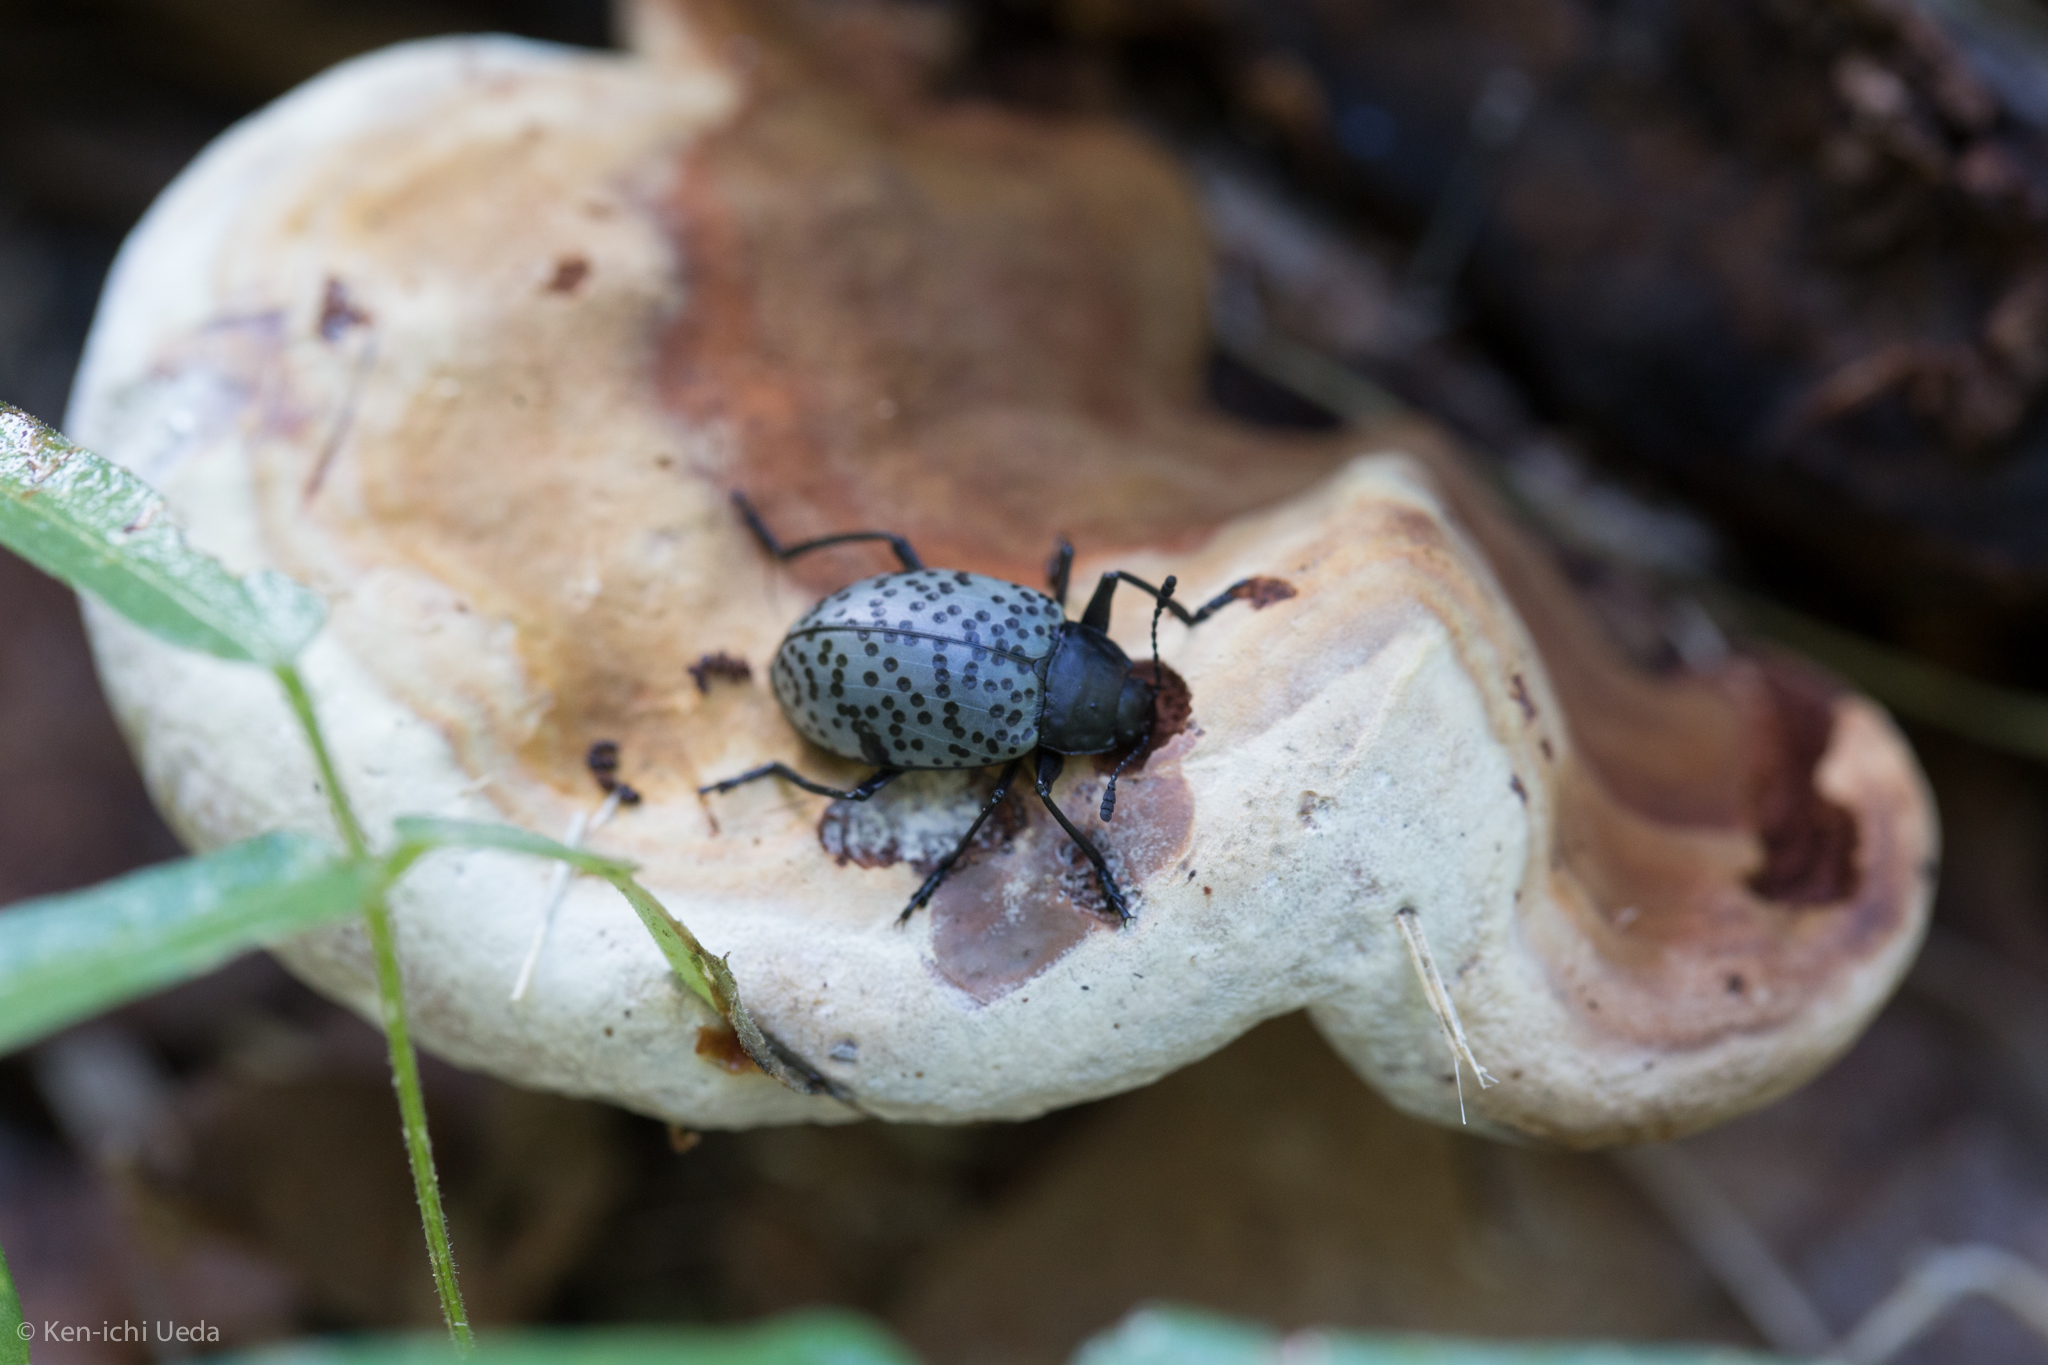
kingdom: Animalia
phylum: Arthropoda
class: Insecta
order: Coleoptera
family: Erotylidae
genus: Gibbifer
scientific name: Gibbifer californicus
